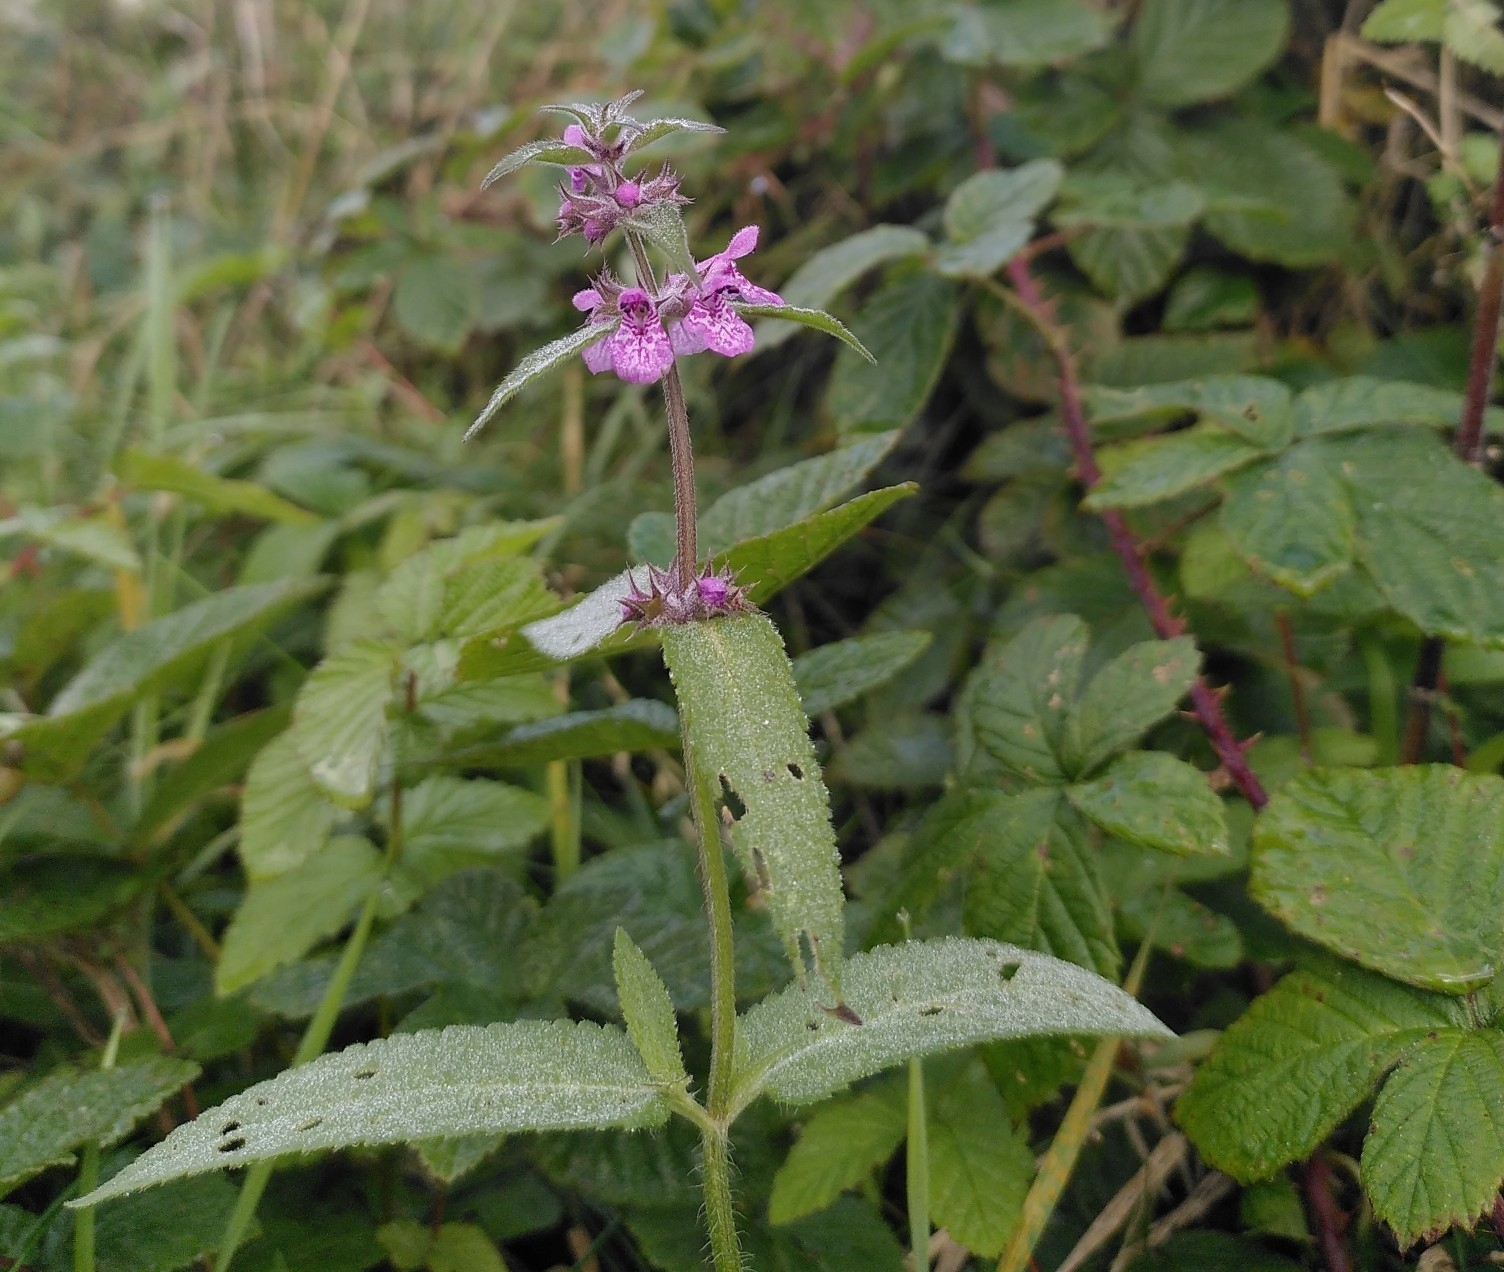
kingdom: Plantae
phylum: Tracheophyta
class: Magnoliopsida
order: Lamiales
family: Lamiaceae
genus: Stachys
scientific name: Stachys palustris
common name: Marsh woundwort
